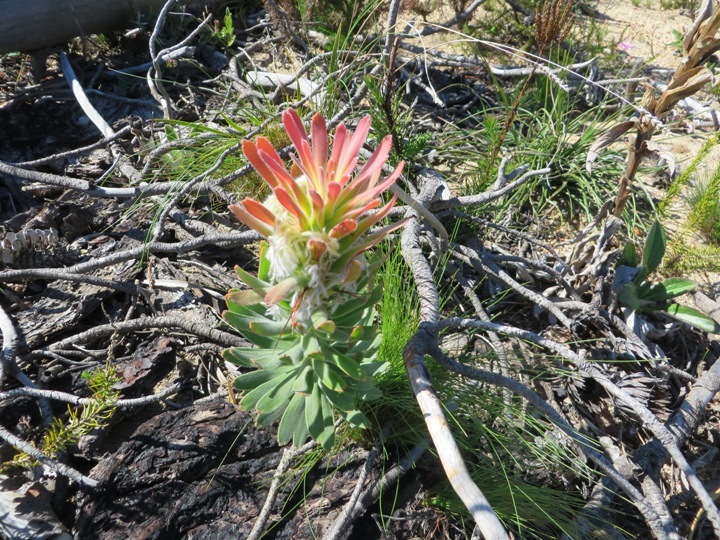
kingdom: Plantae
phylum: Tracheophyta
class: Magnoliopsida
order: Proteales
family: Proteaceae
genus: Mimetes
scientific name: Mimetes cucullatus
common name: Common pagoda
